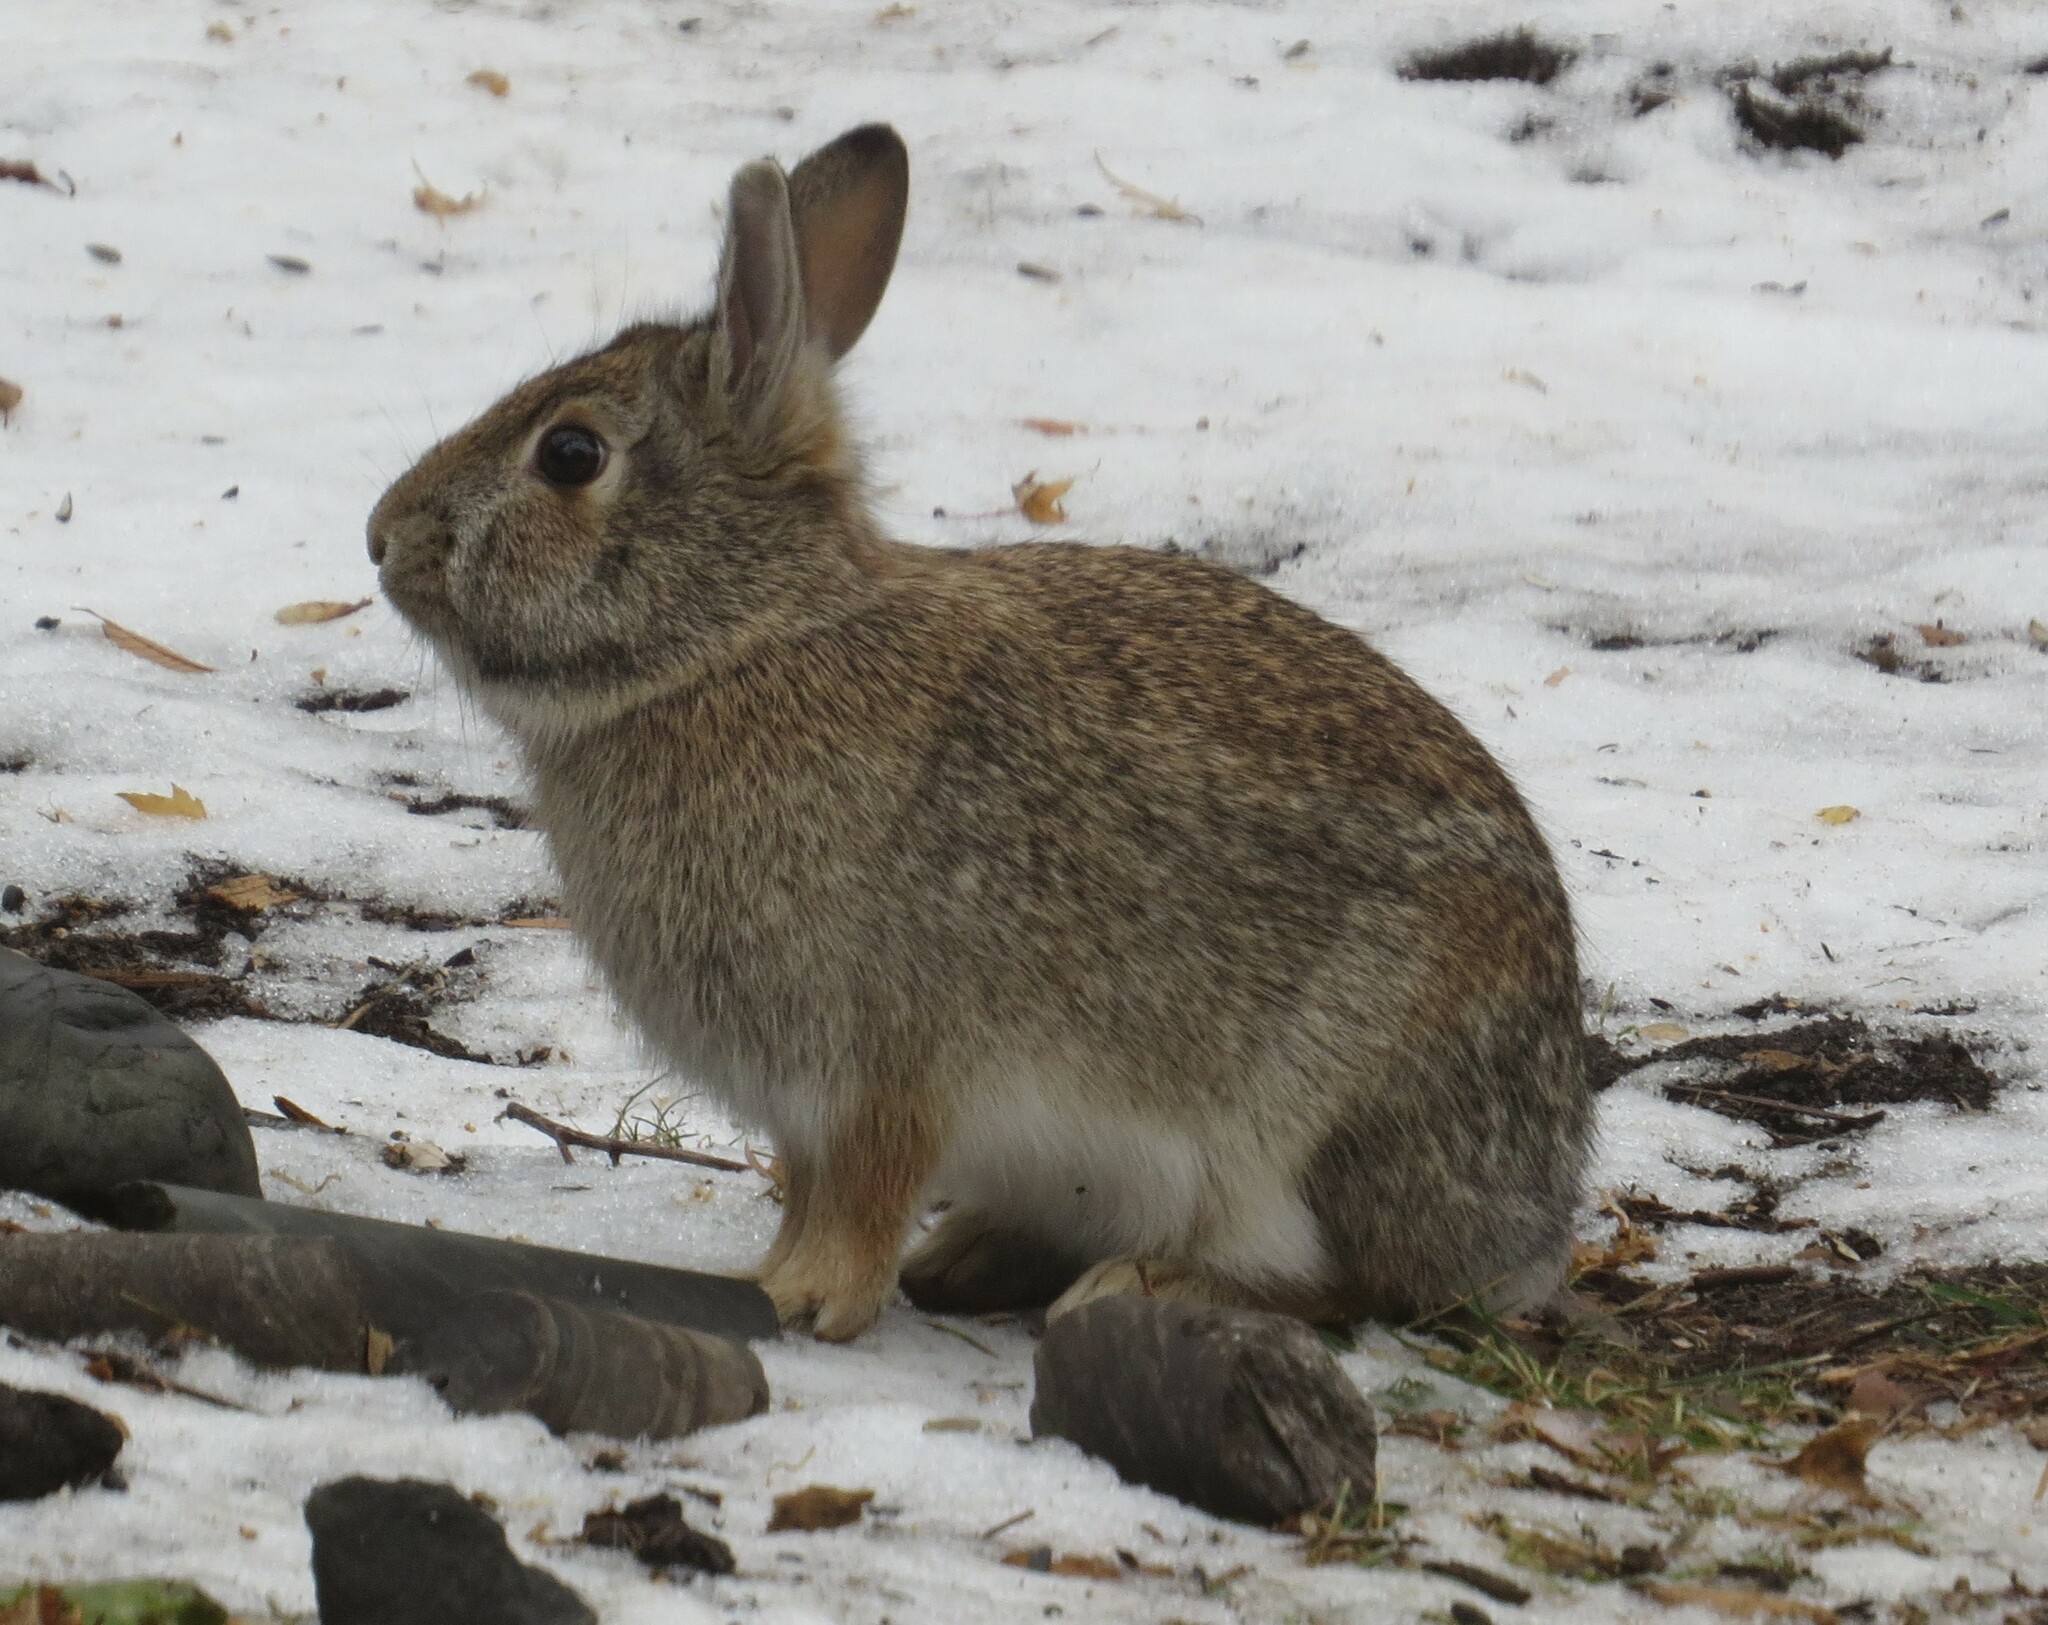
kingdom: Animalia
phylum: Chordata
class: Mammalia
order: Lagomorpha
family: Leporidae
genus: Sylvilagus
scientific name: Sylvilagus floridanus
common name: Eastern cottontail
